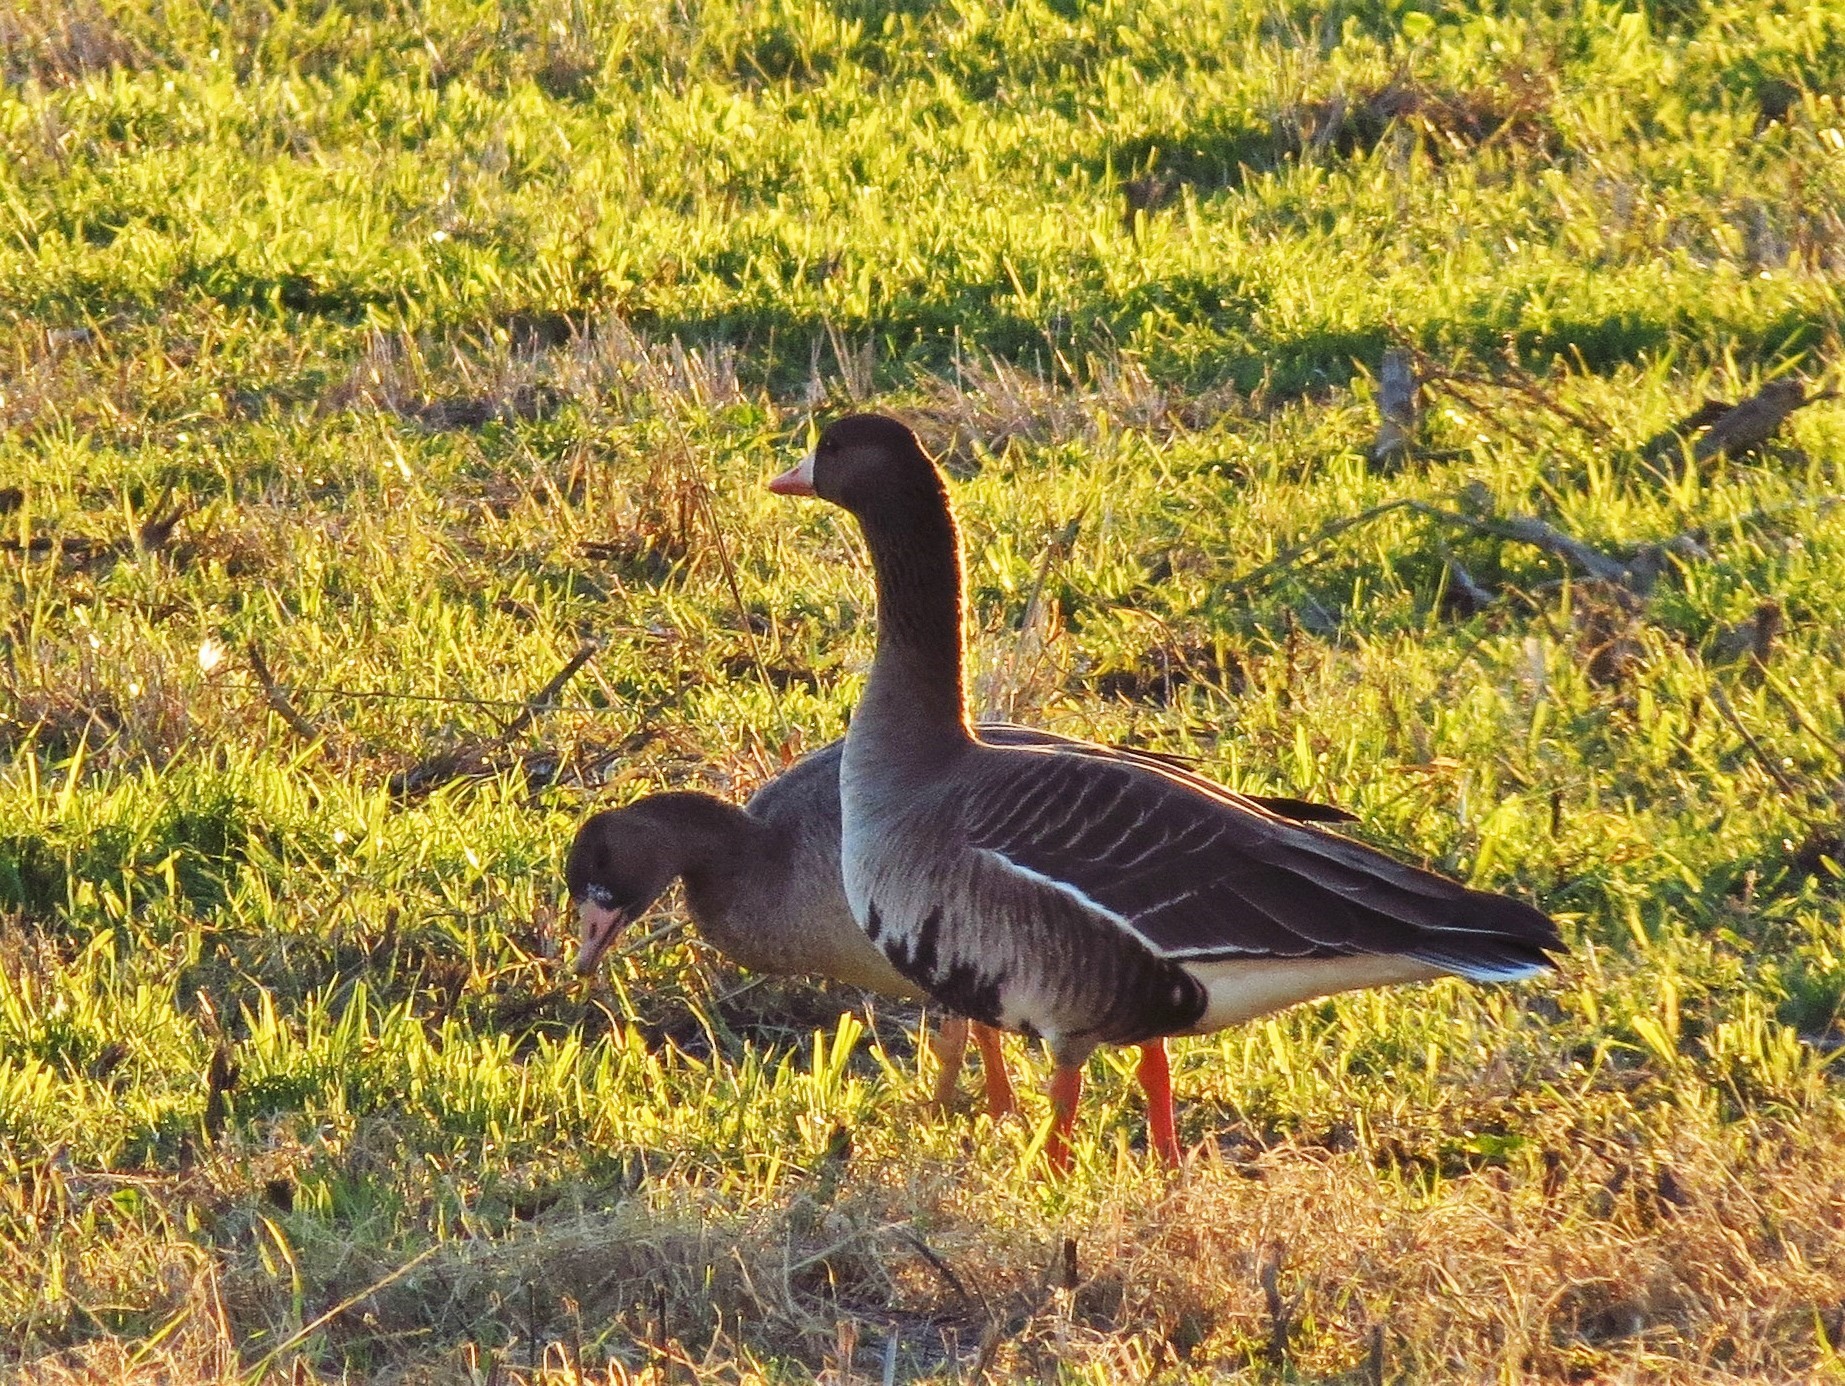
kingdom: Animalia
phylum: Chordata
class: Aves
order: Anseriformes
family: Anatidae
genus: Anser
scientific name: Anser albifrons
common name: Greater white-fronted goose
